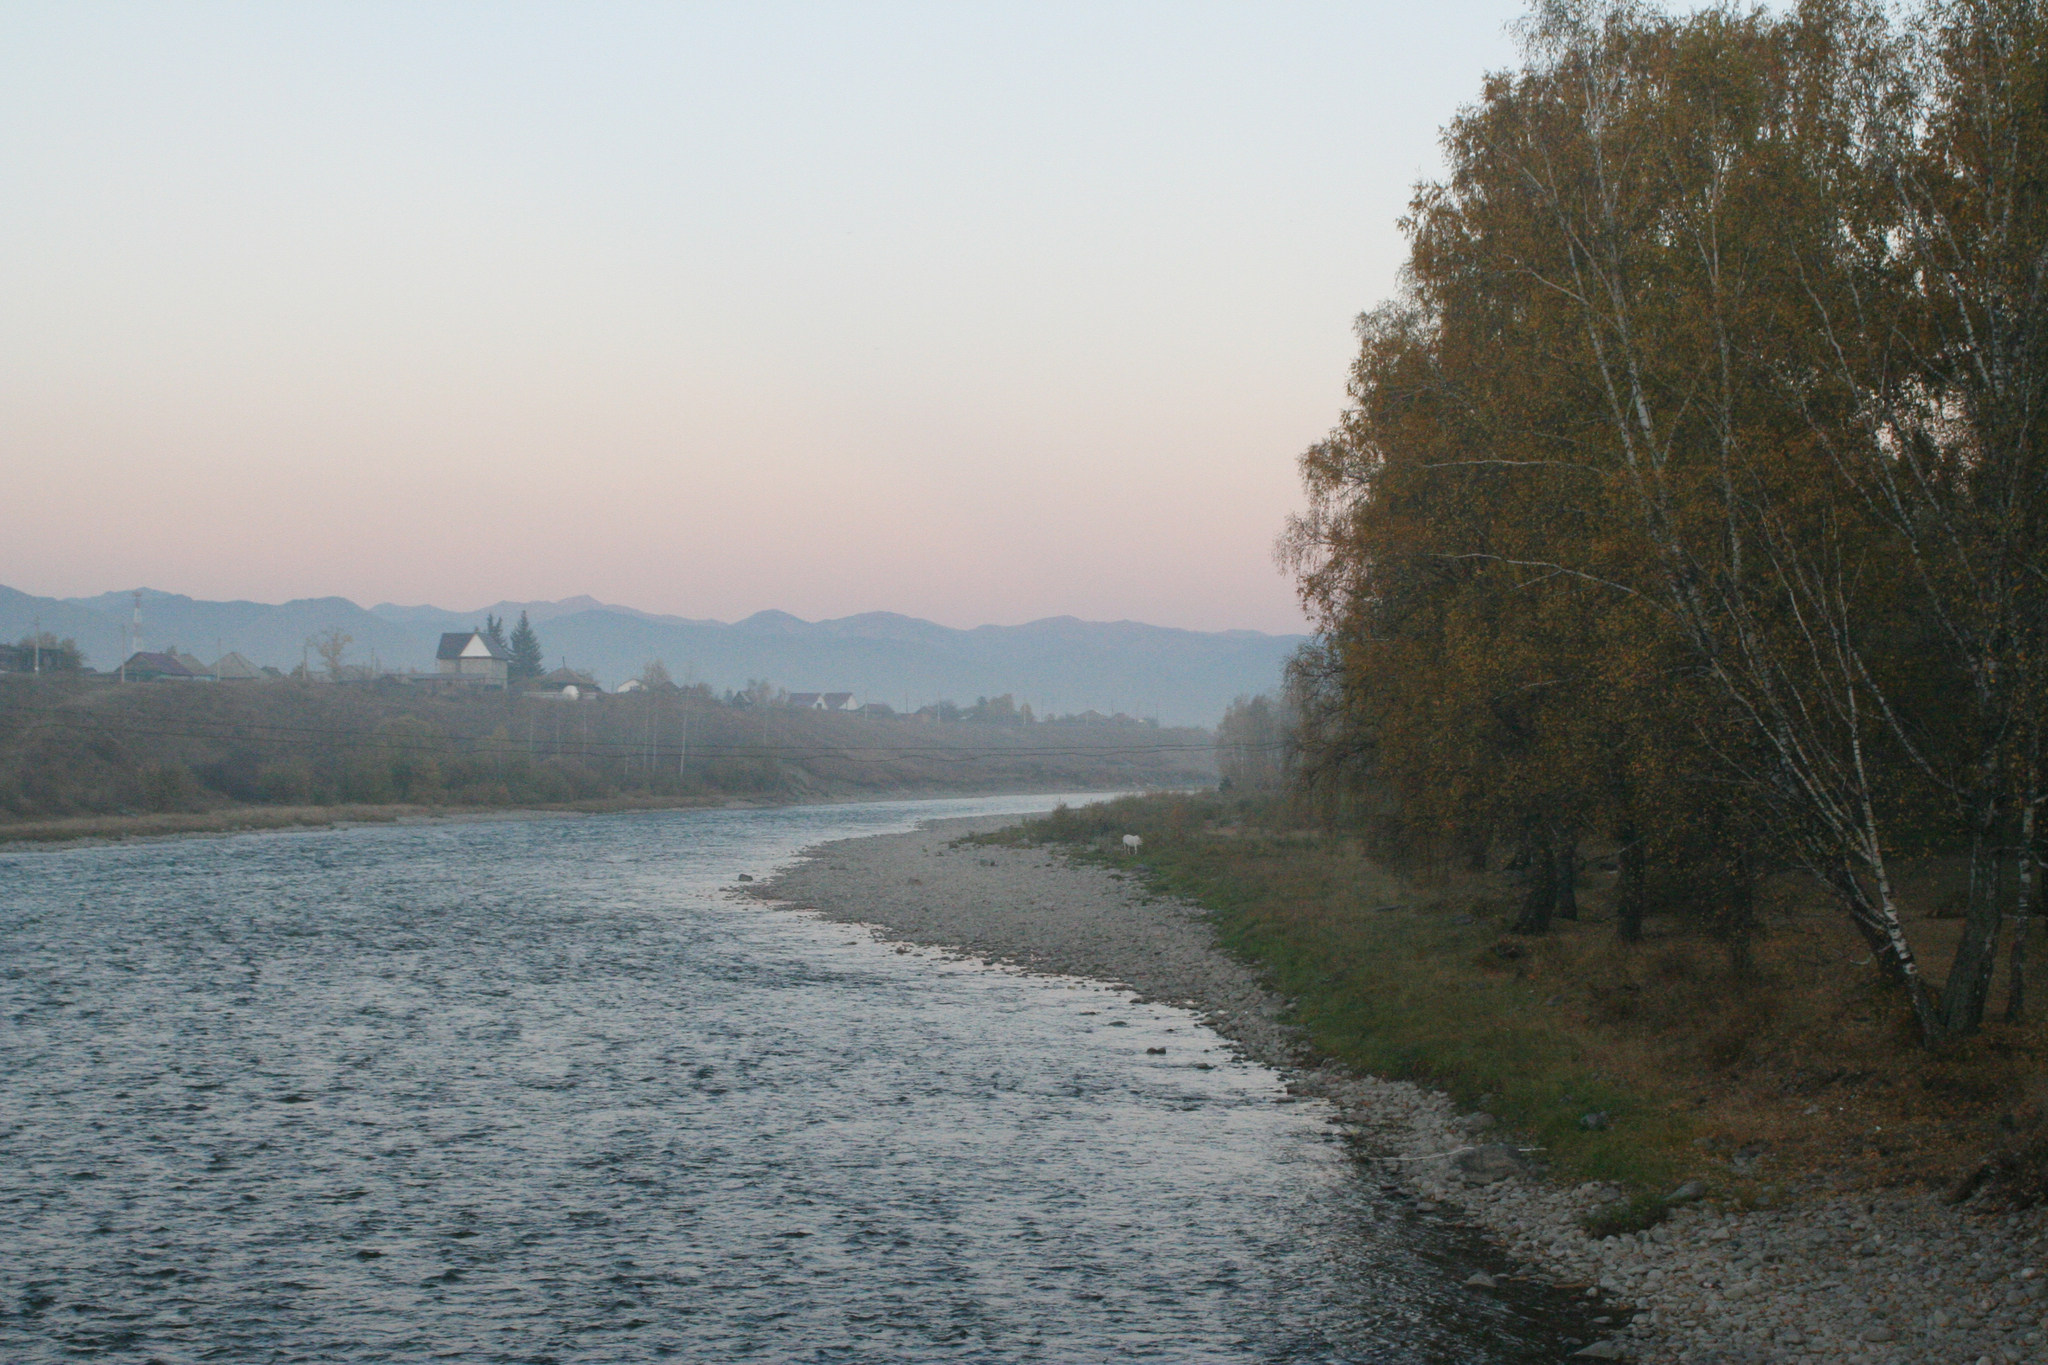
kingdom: Plantae
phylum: Tracheophyta
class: Magnoliopsida
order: Fagales
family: Betulaceae
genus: Betula
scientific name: Betula pendula
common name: Silver birch
